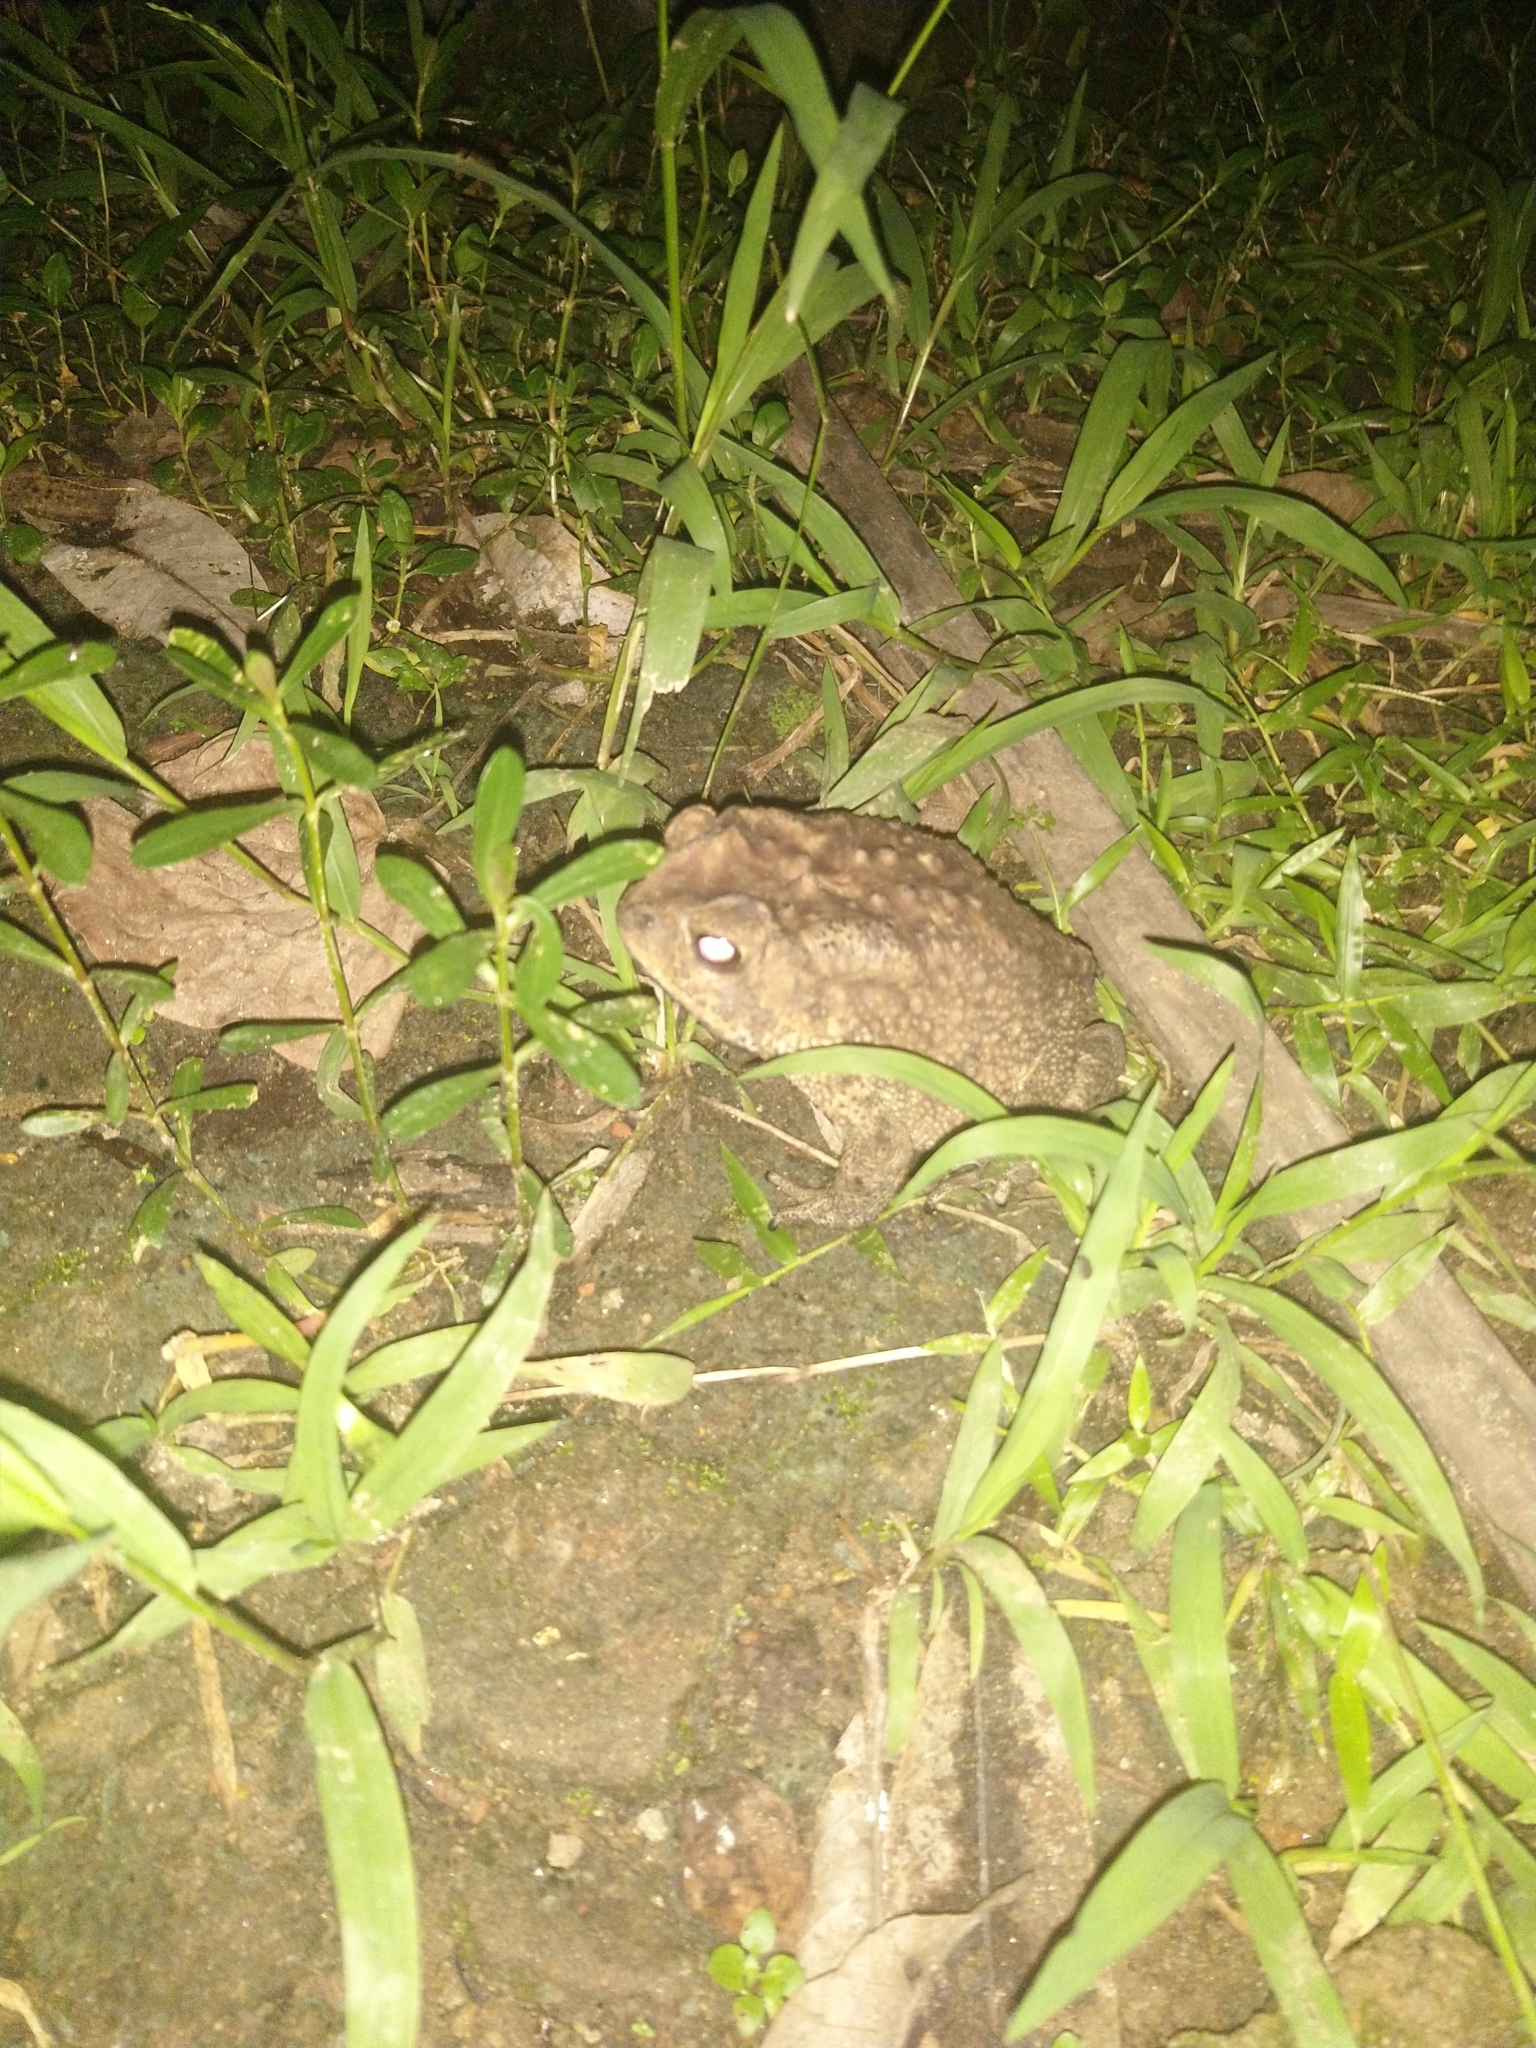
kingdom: Animalia
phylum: Chordata
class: Amphibia
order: Anura
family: Bufonidae
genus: Duttaphrynus
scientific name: Duttaphrynus melanostictus
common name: Common sunda toad
